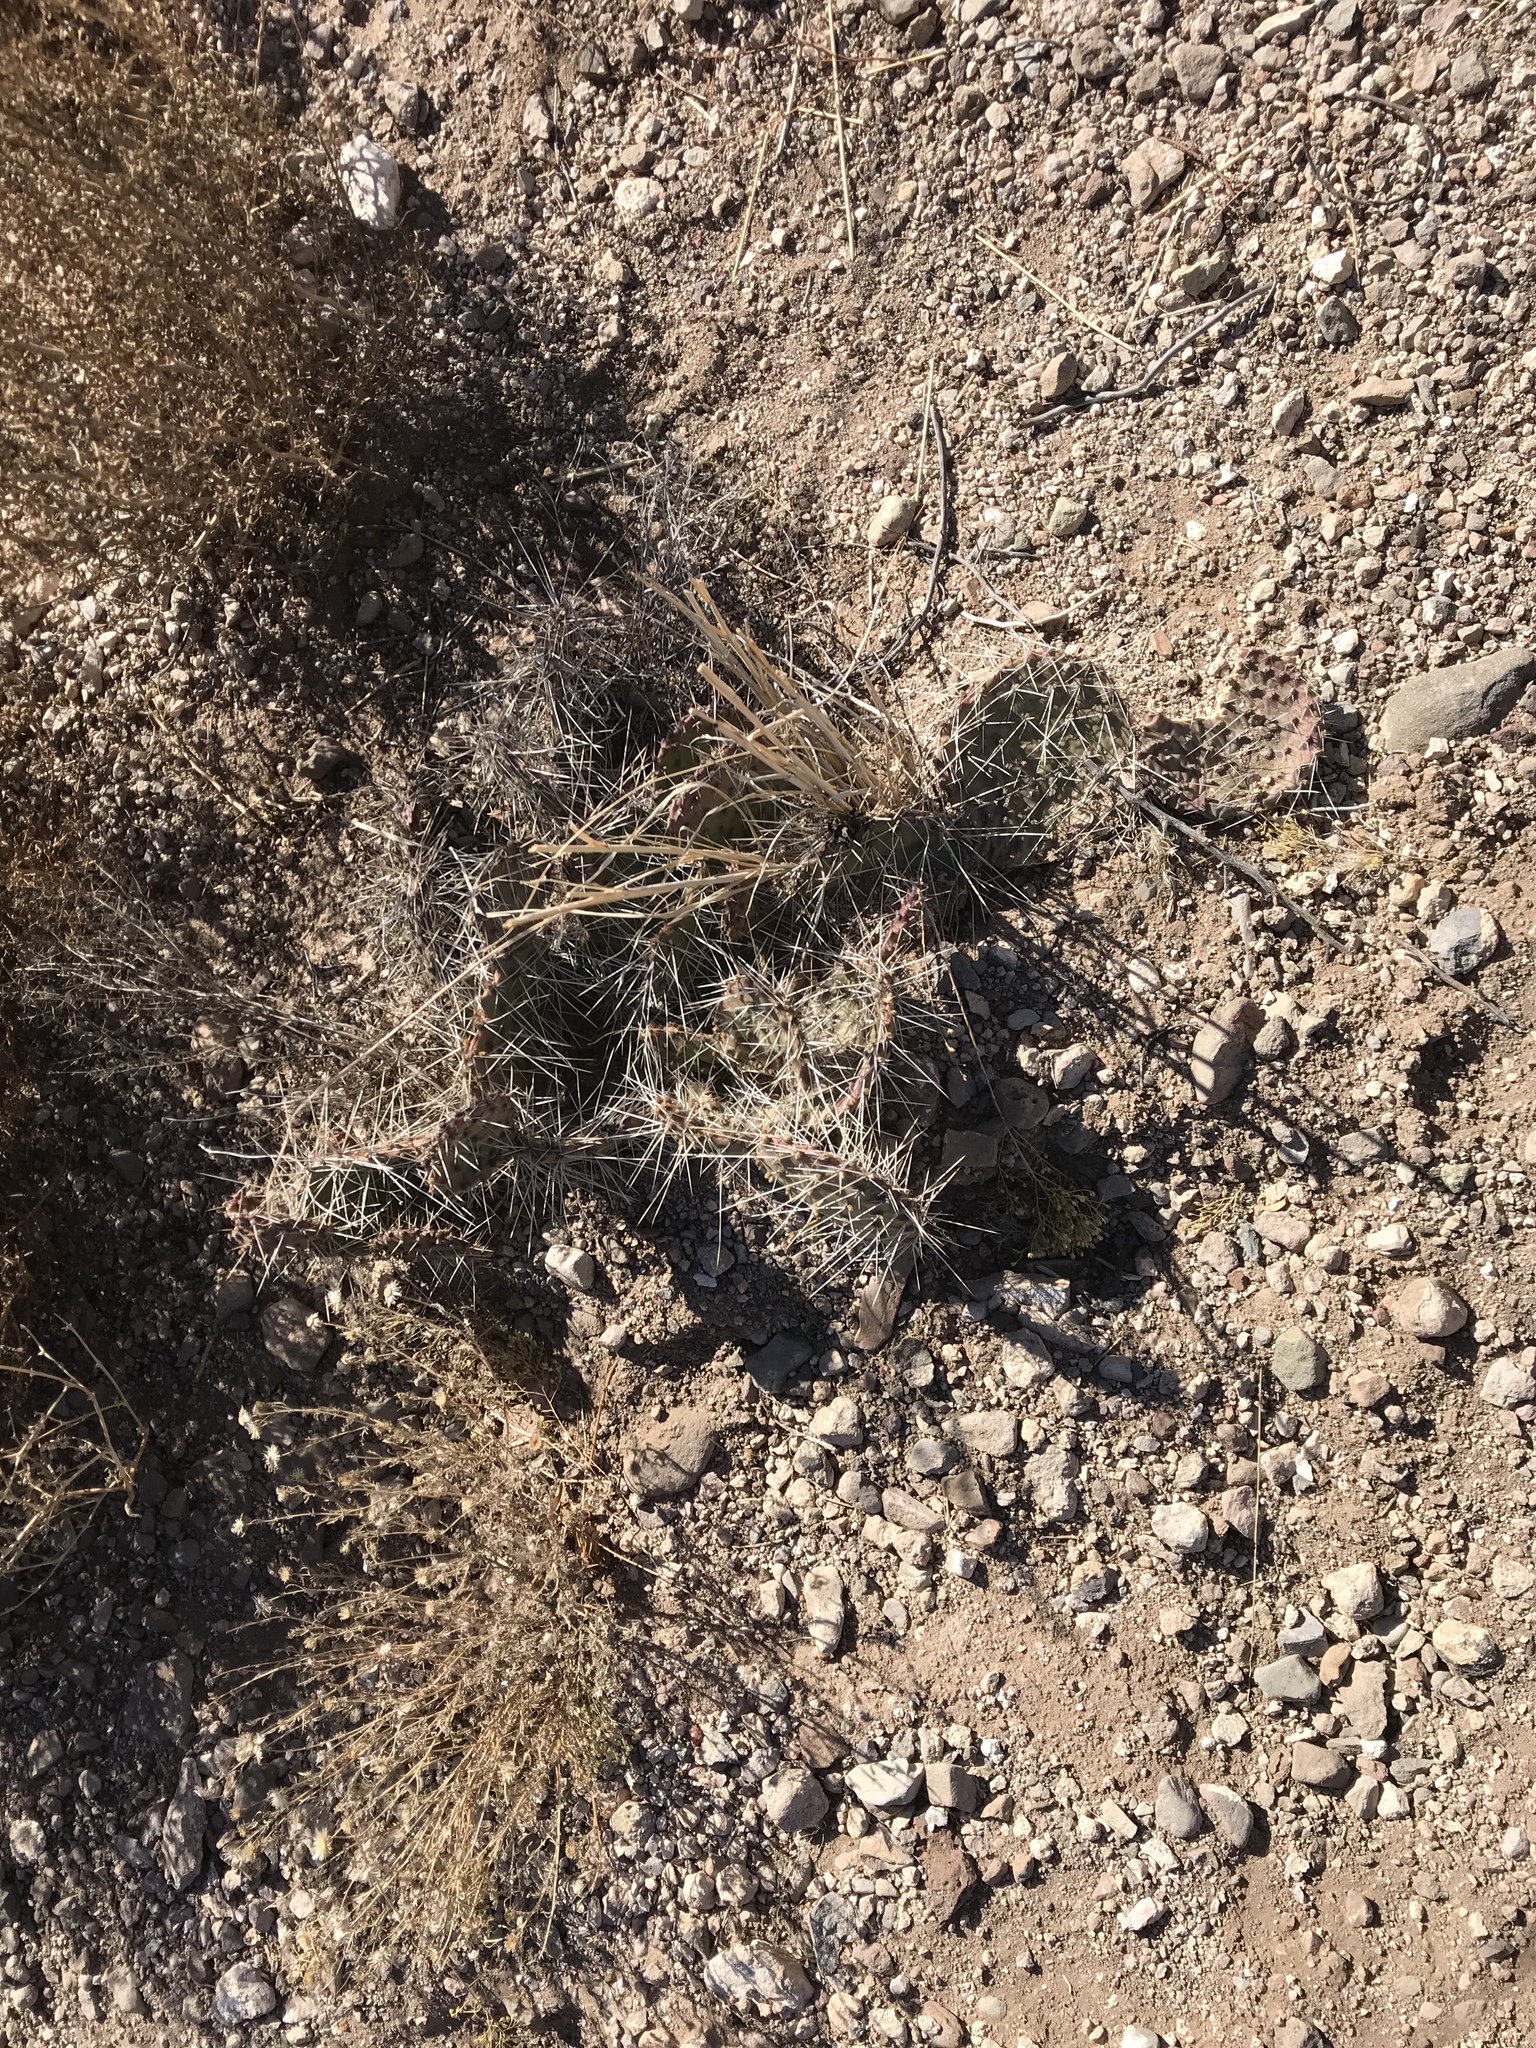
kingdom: Plantae
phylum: Tracheophyta
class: Magnoliopsida
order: Caryophyllales
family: Cactaceae
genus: Opuntia
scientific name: Opuntia macrorhiza
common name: Grassland pricklypear
